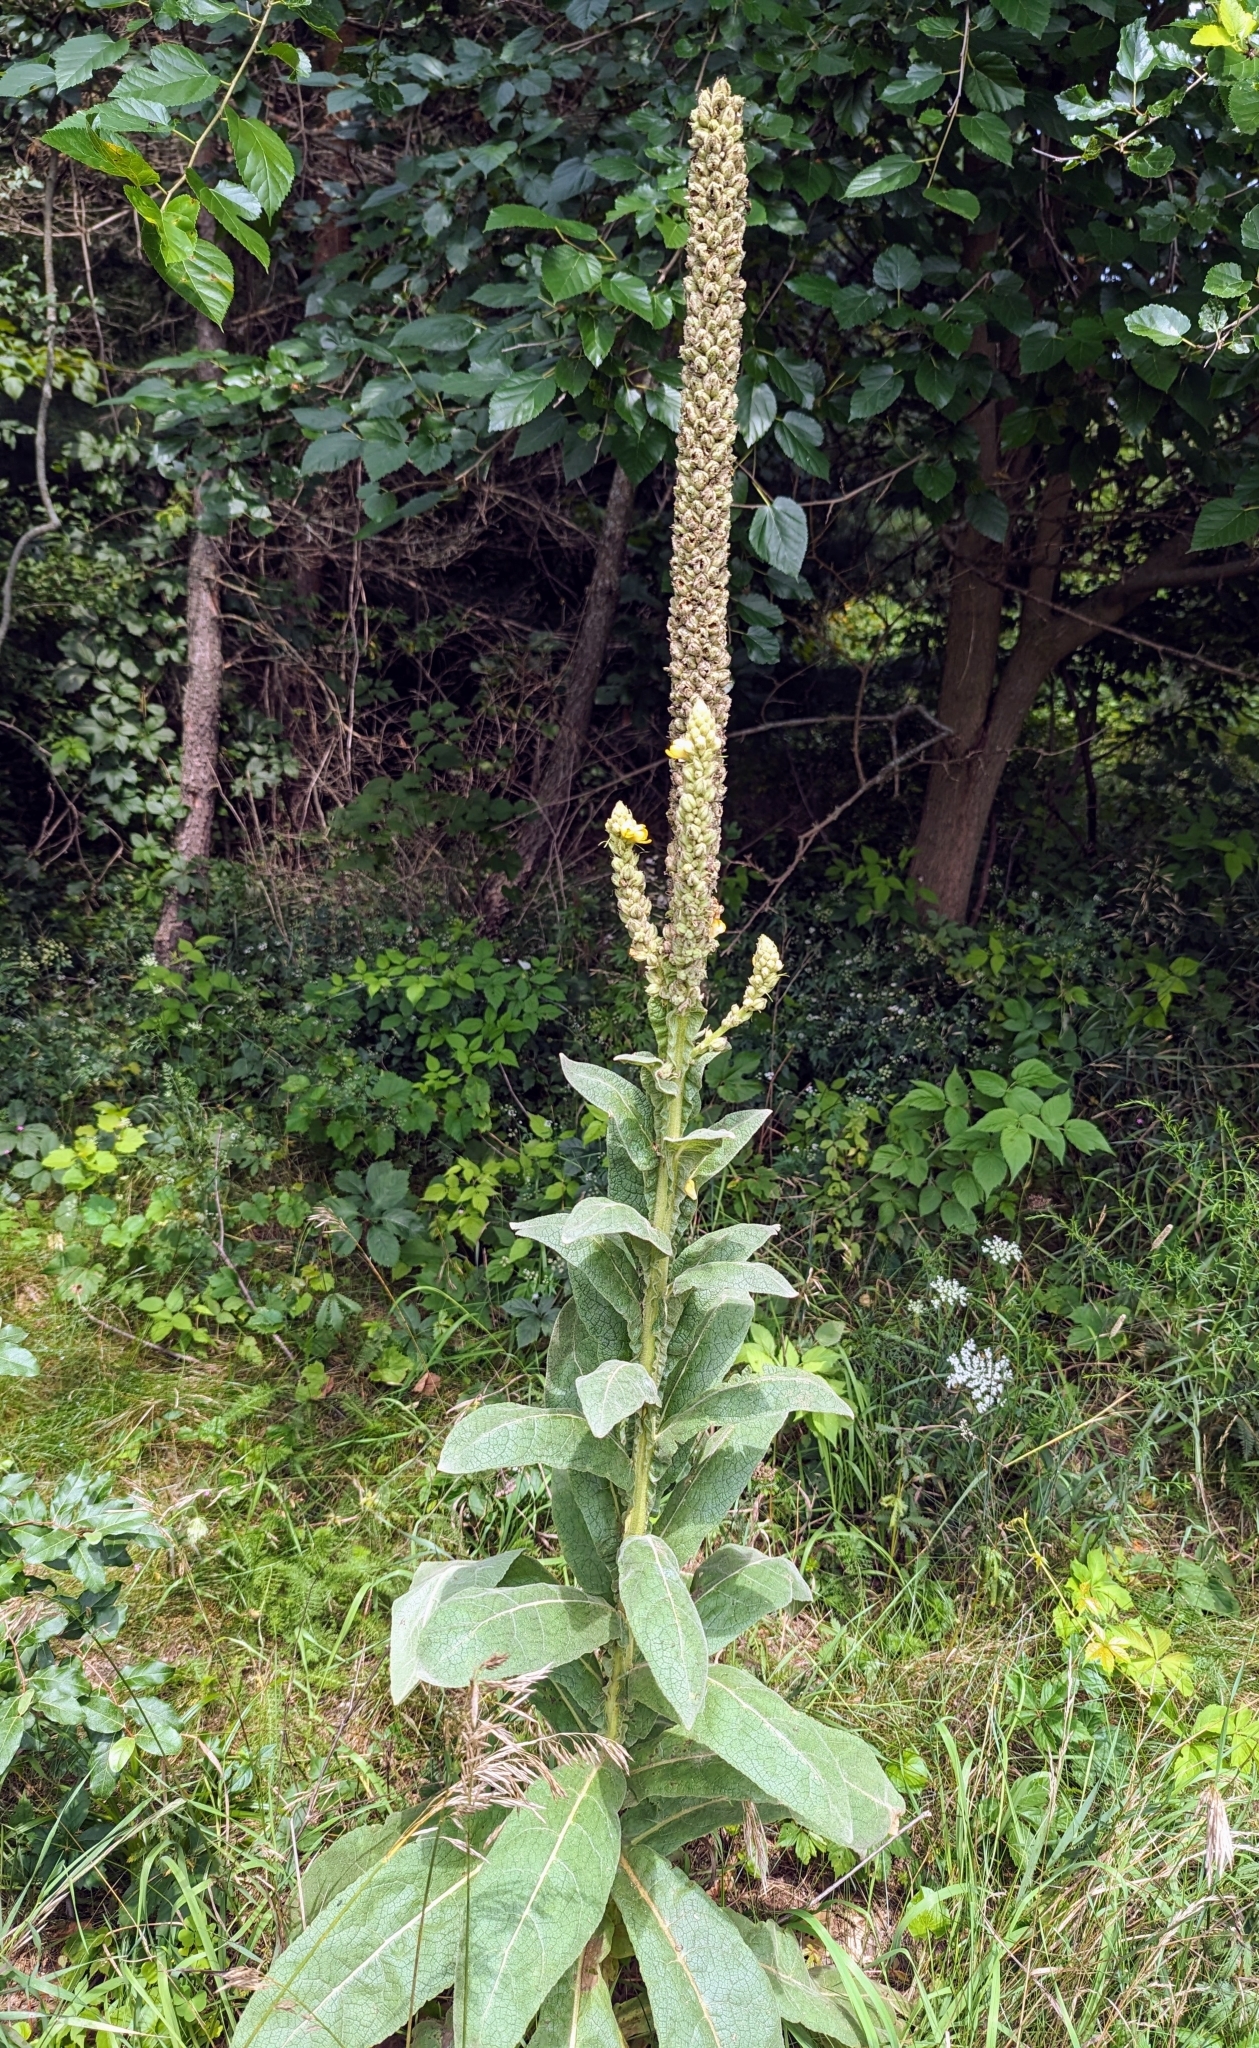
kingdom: Plantae
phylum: Tracheophyta
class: Magnoliopsida
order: Lamiales
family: Scrophulariaceae
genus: Verbascum
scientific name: Verbascum thapsus
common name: Common mullein
